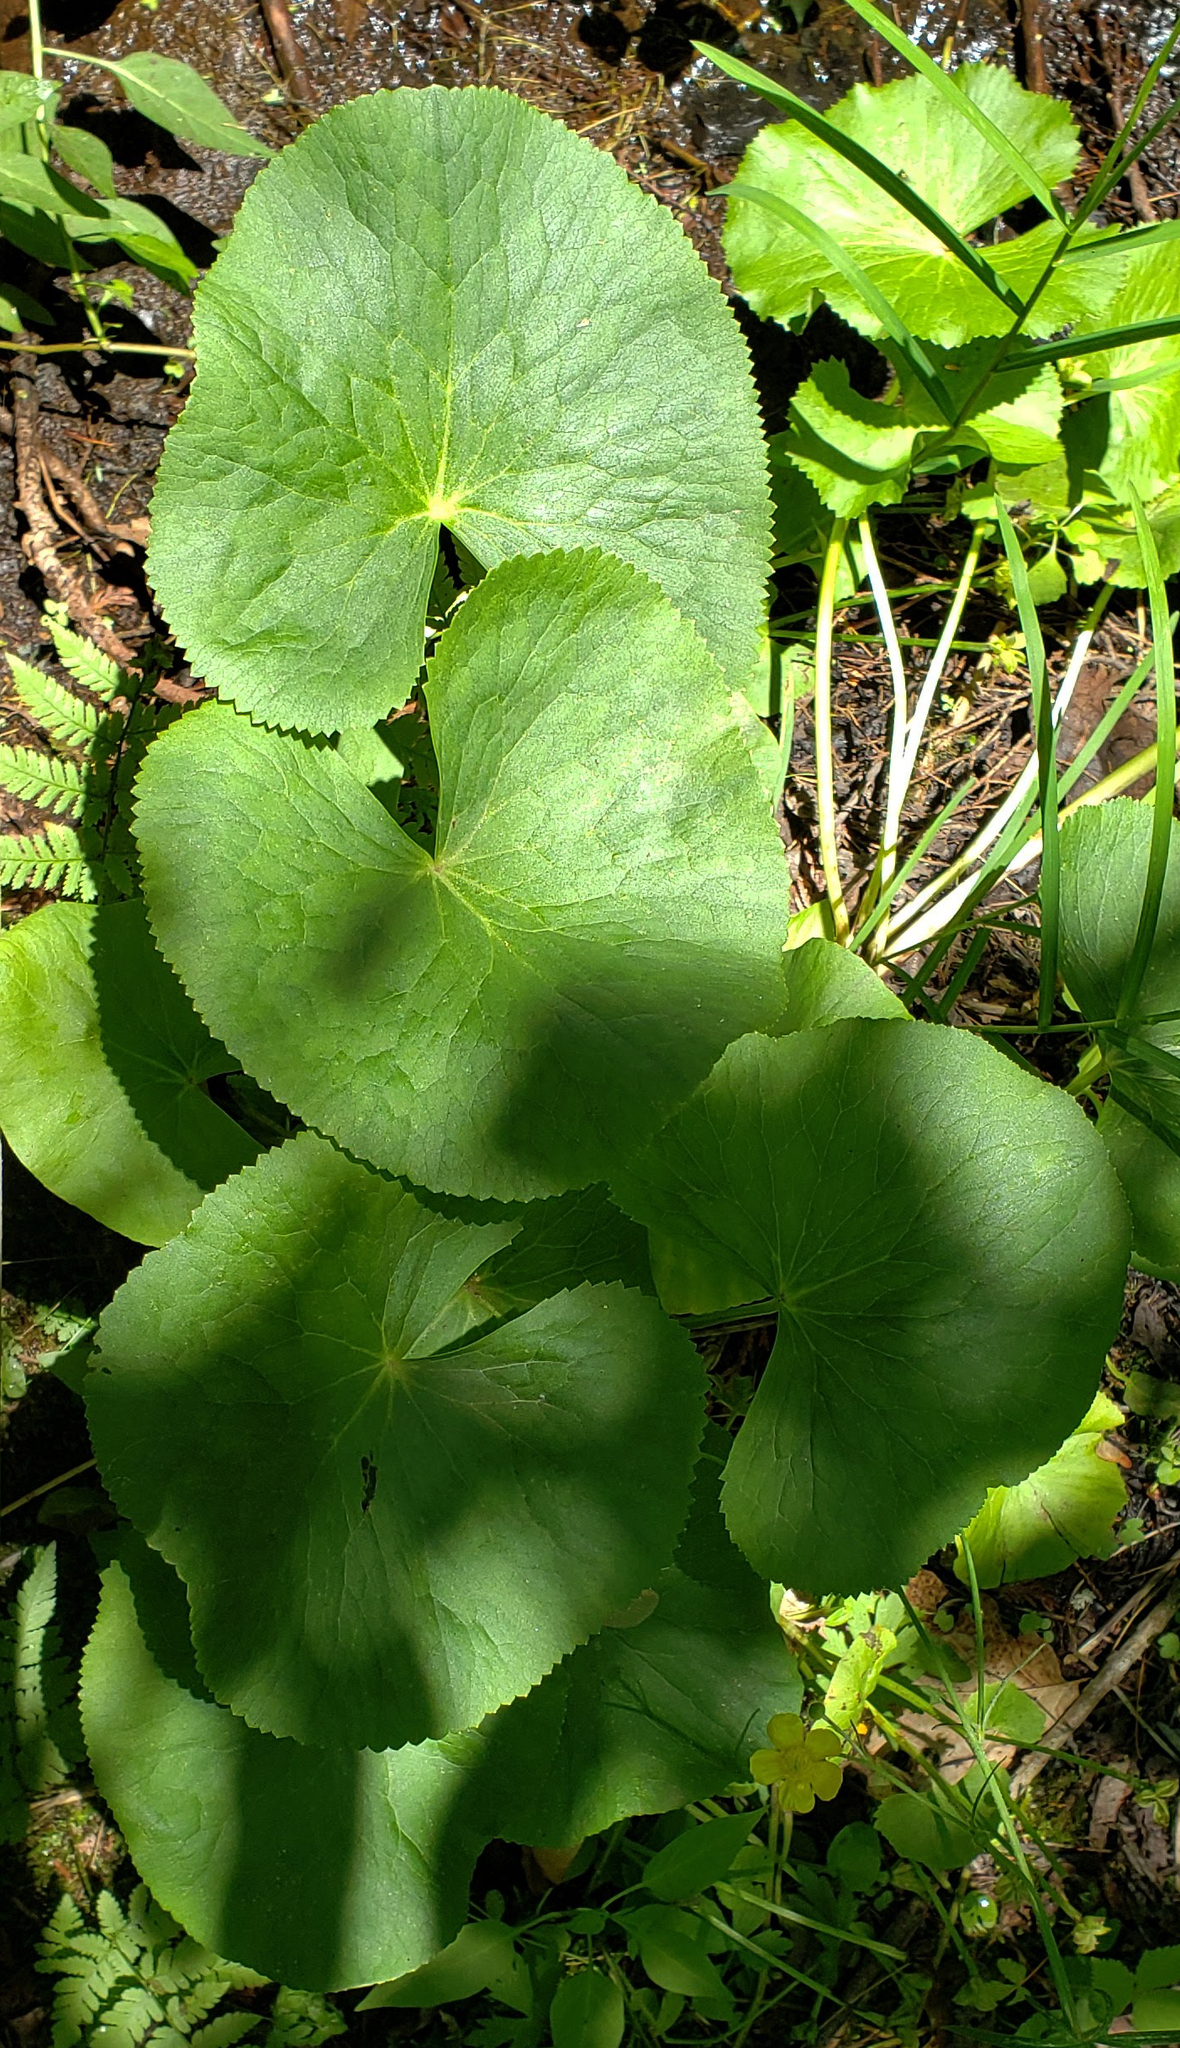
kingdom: Plantae
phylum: Tracheophyta
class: Magnoliopsida
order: Ranunculales
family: Ranunculaceae
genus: Caltha
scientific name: Caltha palustris
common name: Marsh marigold
